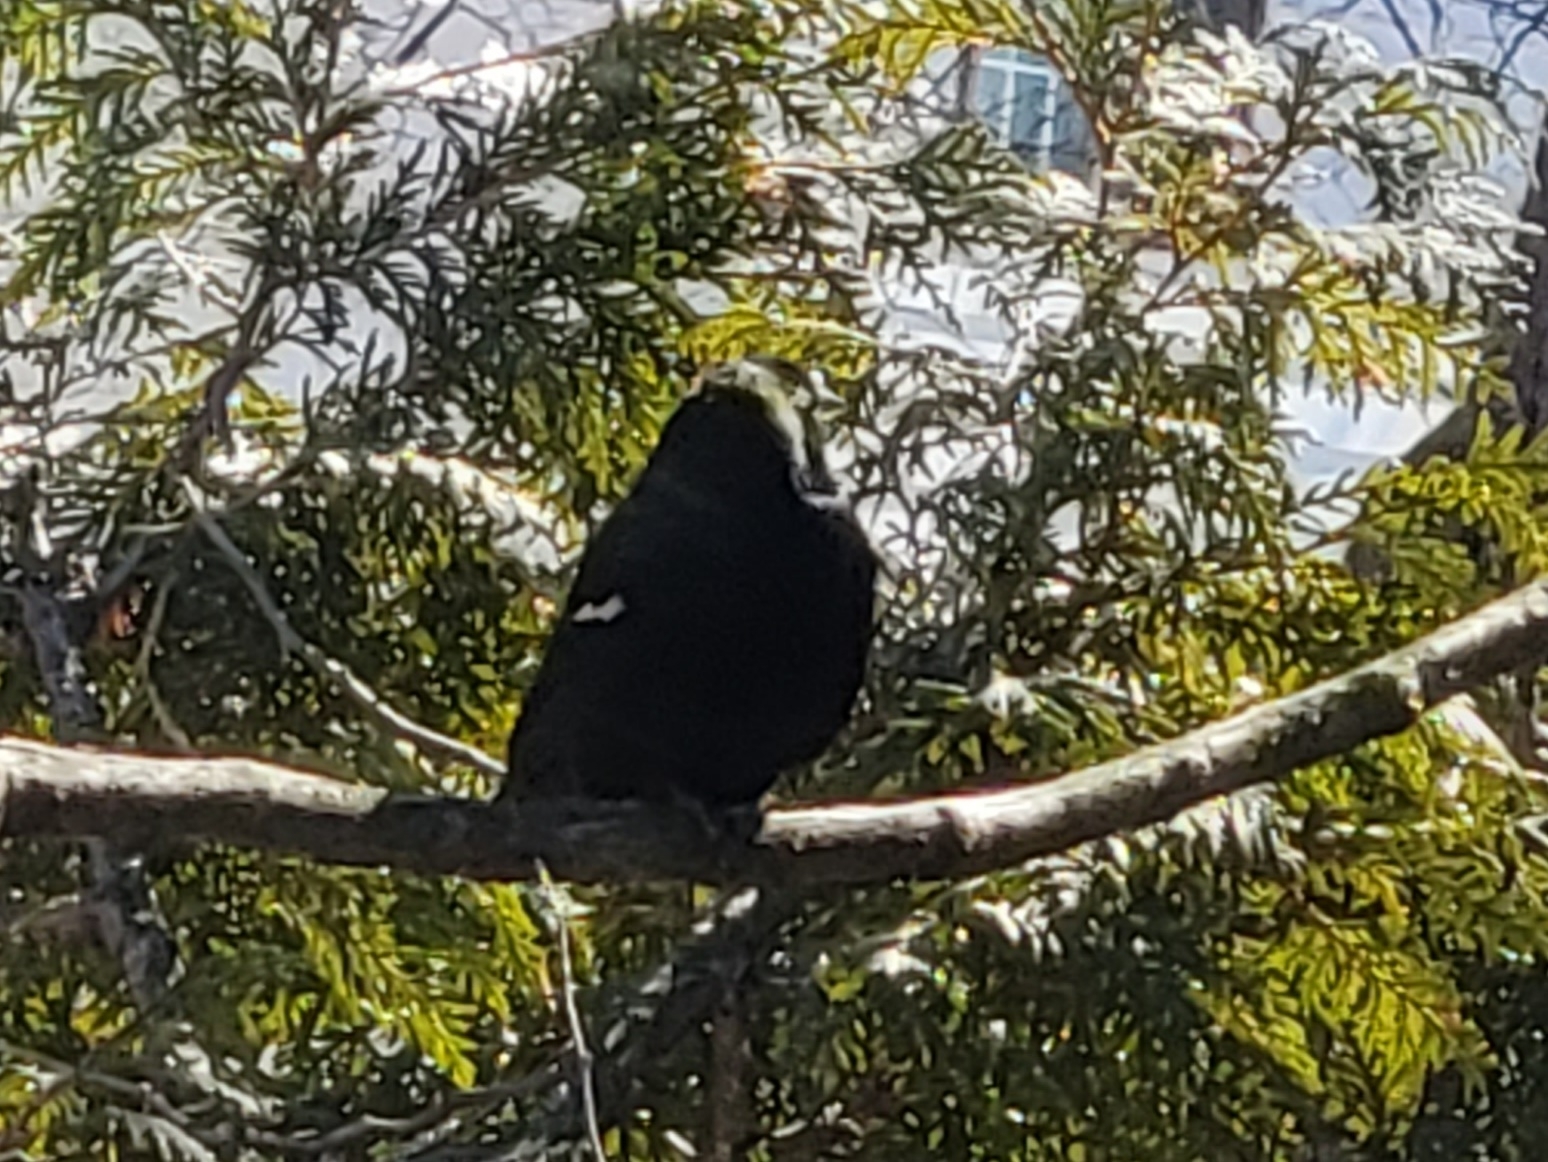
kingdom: Animalia
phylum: Chordata
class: Aves
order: Passeriformes
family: Icteridae
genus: Agelaius
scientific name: Agelaius phoeniceus
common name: Red-winged blackbird
